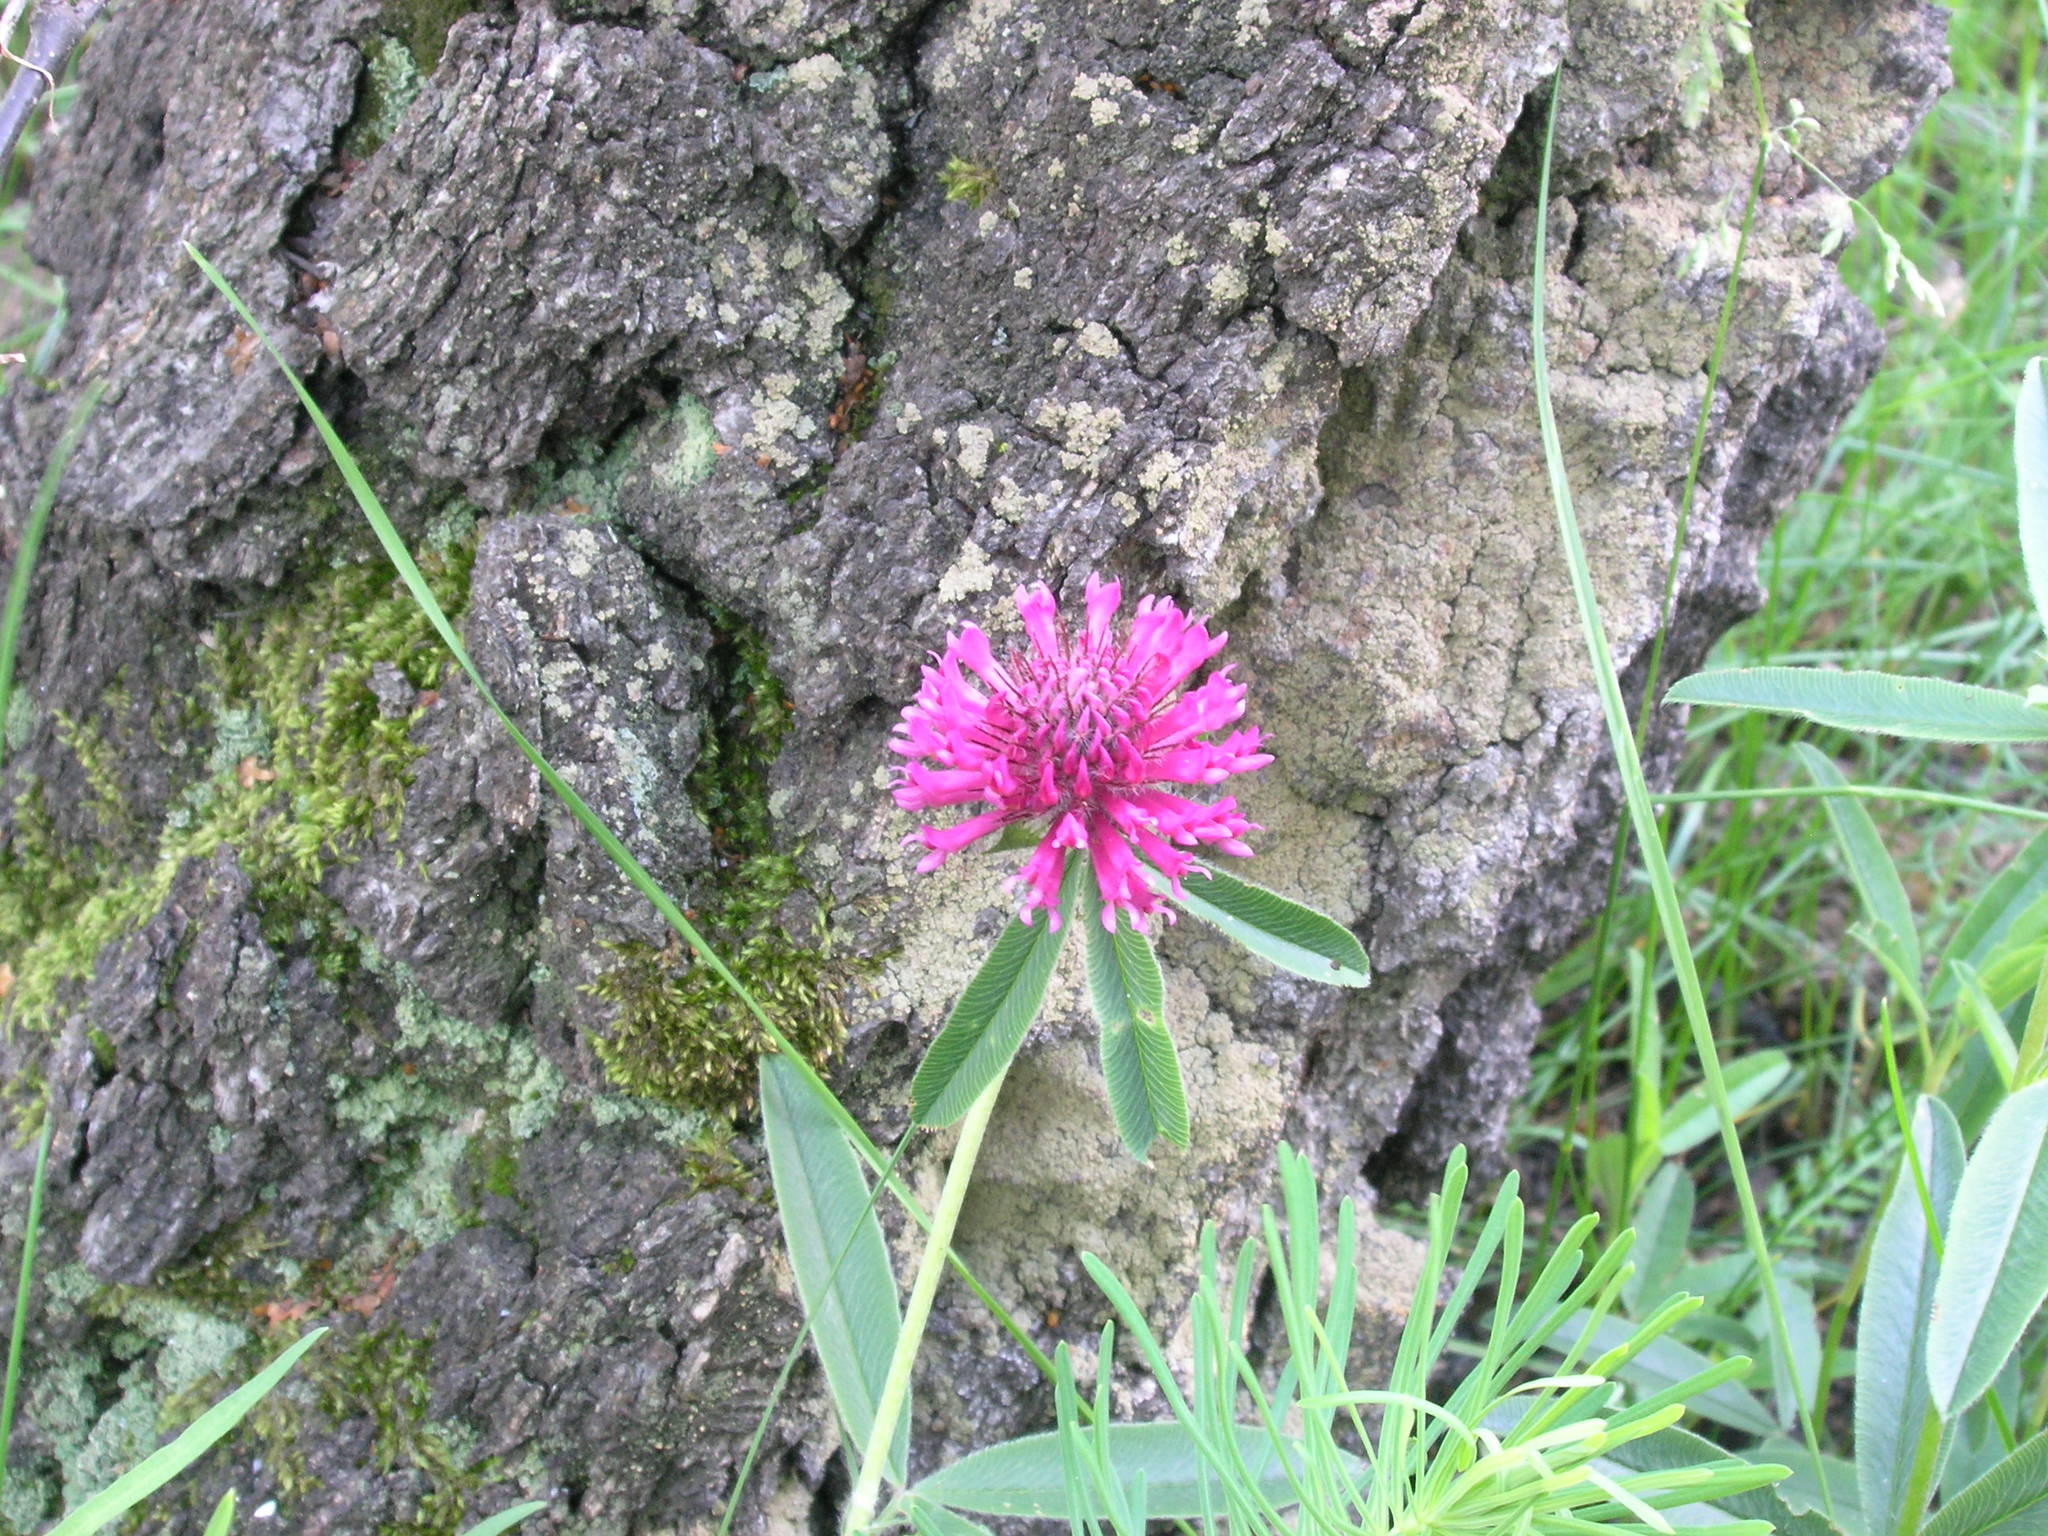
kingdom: Plantae
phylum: Tracheophyta
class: Magnoliopsida
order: Fabales
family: Fabaceae
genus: Trifolium
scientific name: Trifolium alpestre
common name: Owl-head clover
